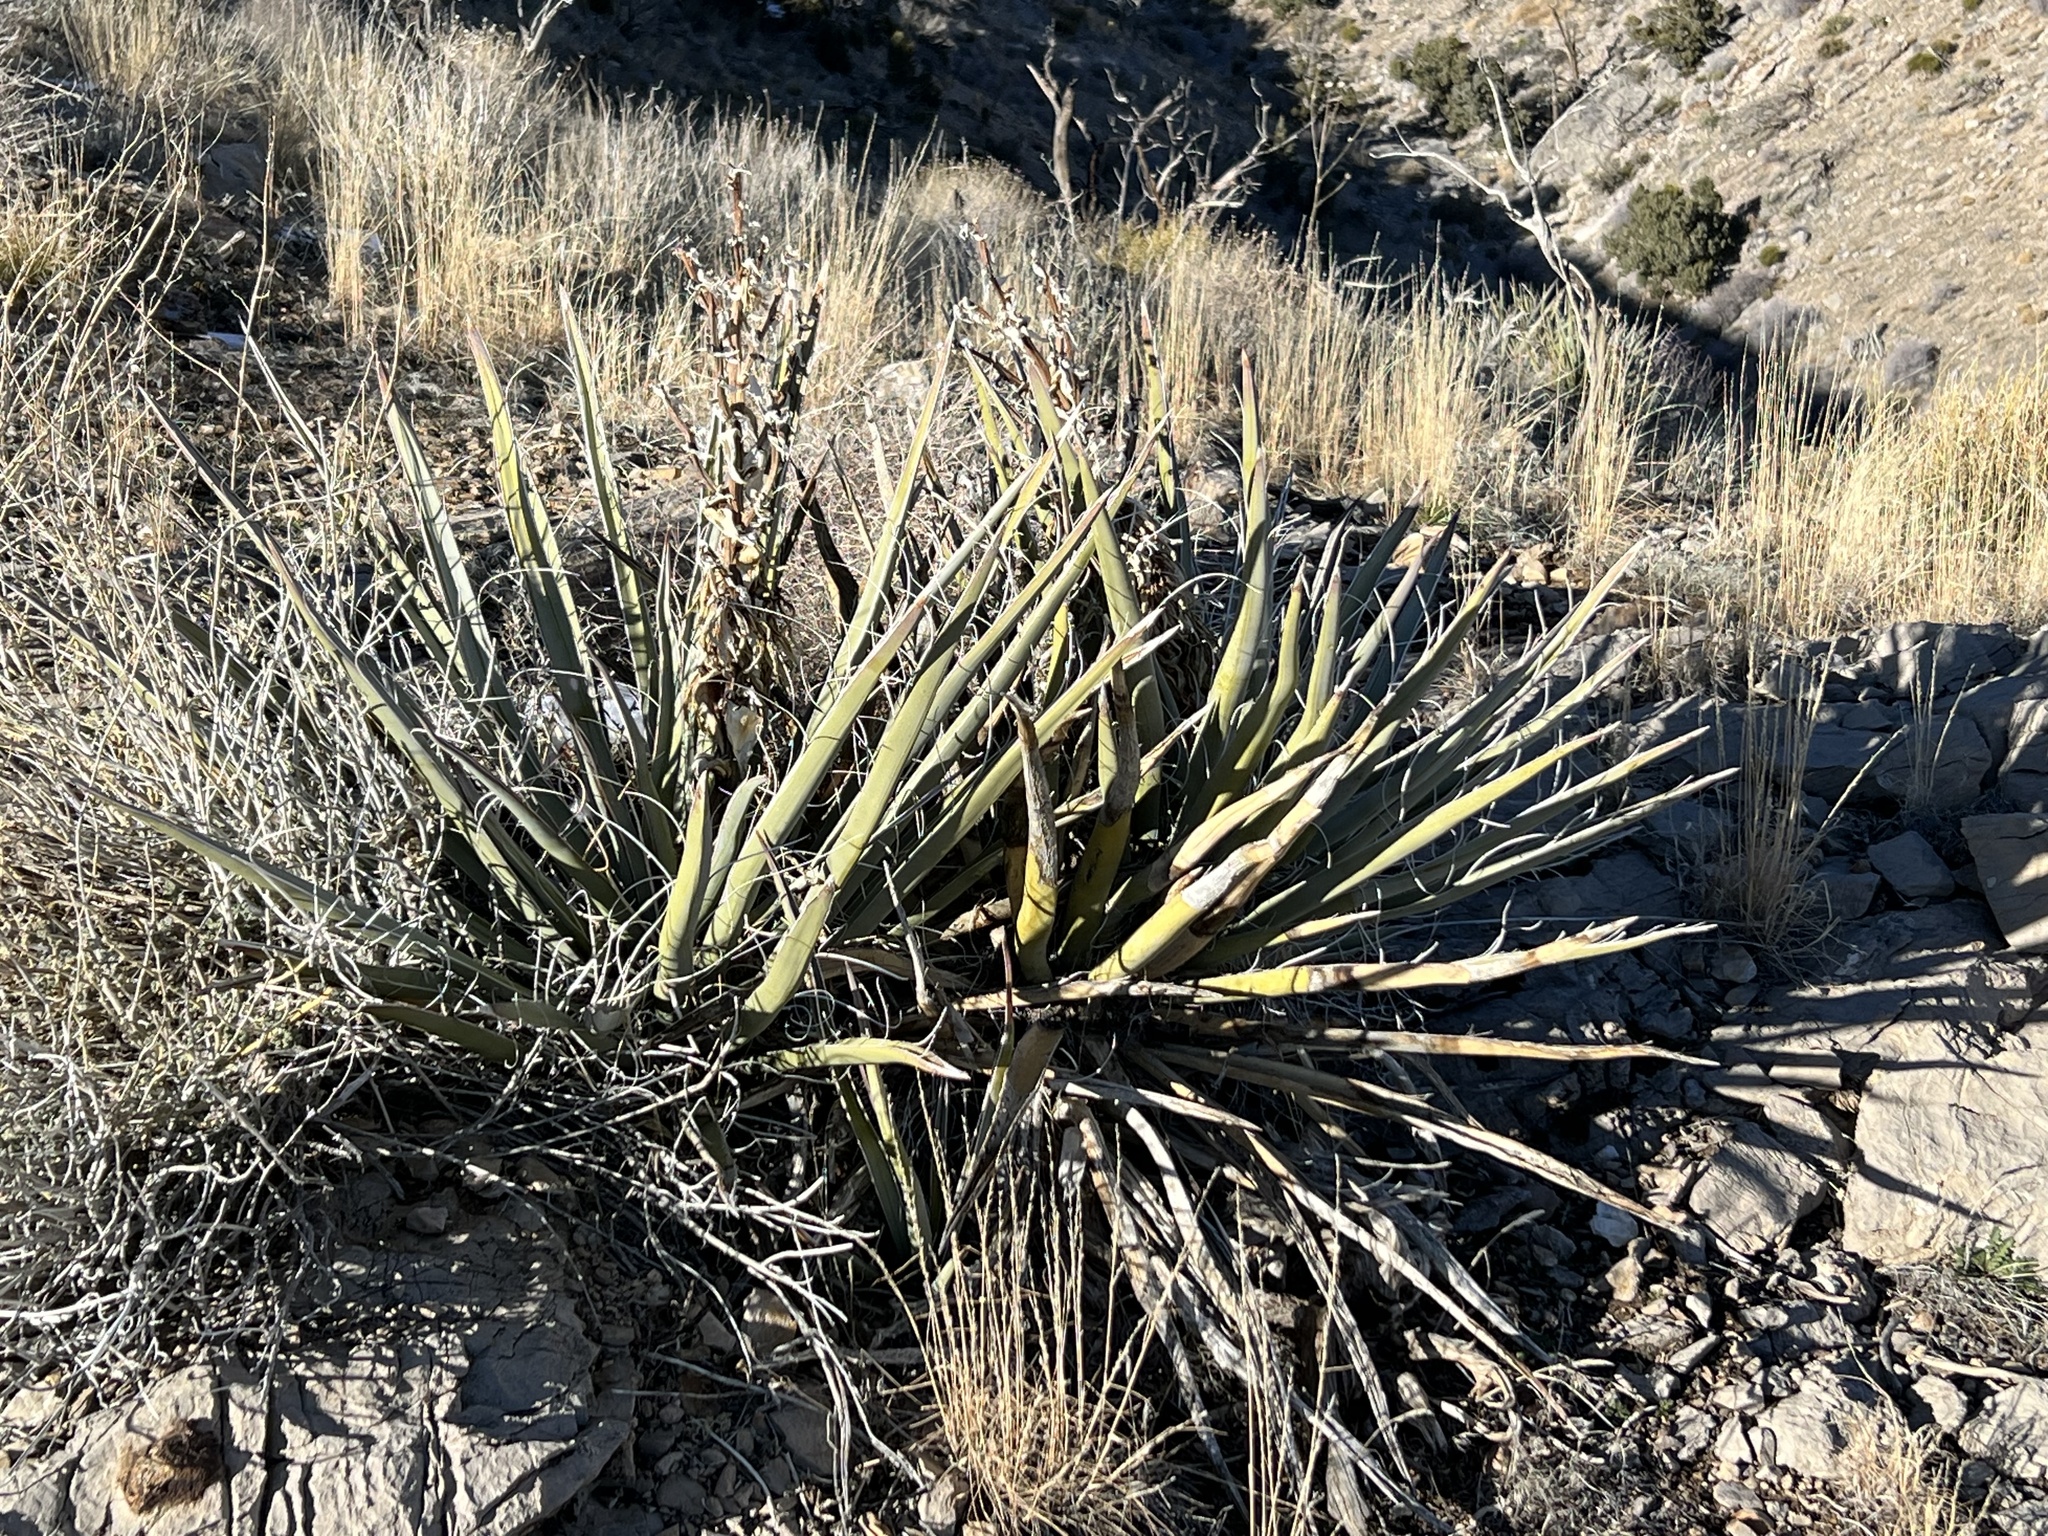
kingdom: Plantae
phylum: Tracheophyta
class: Liliopsida
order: Asparagales
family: Asparagaceae
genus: Yucca
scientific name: Yucca baccata
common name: Banana yucca
